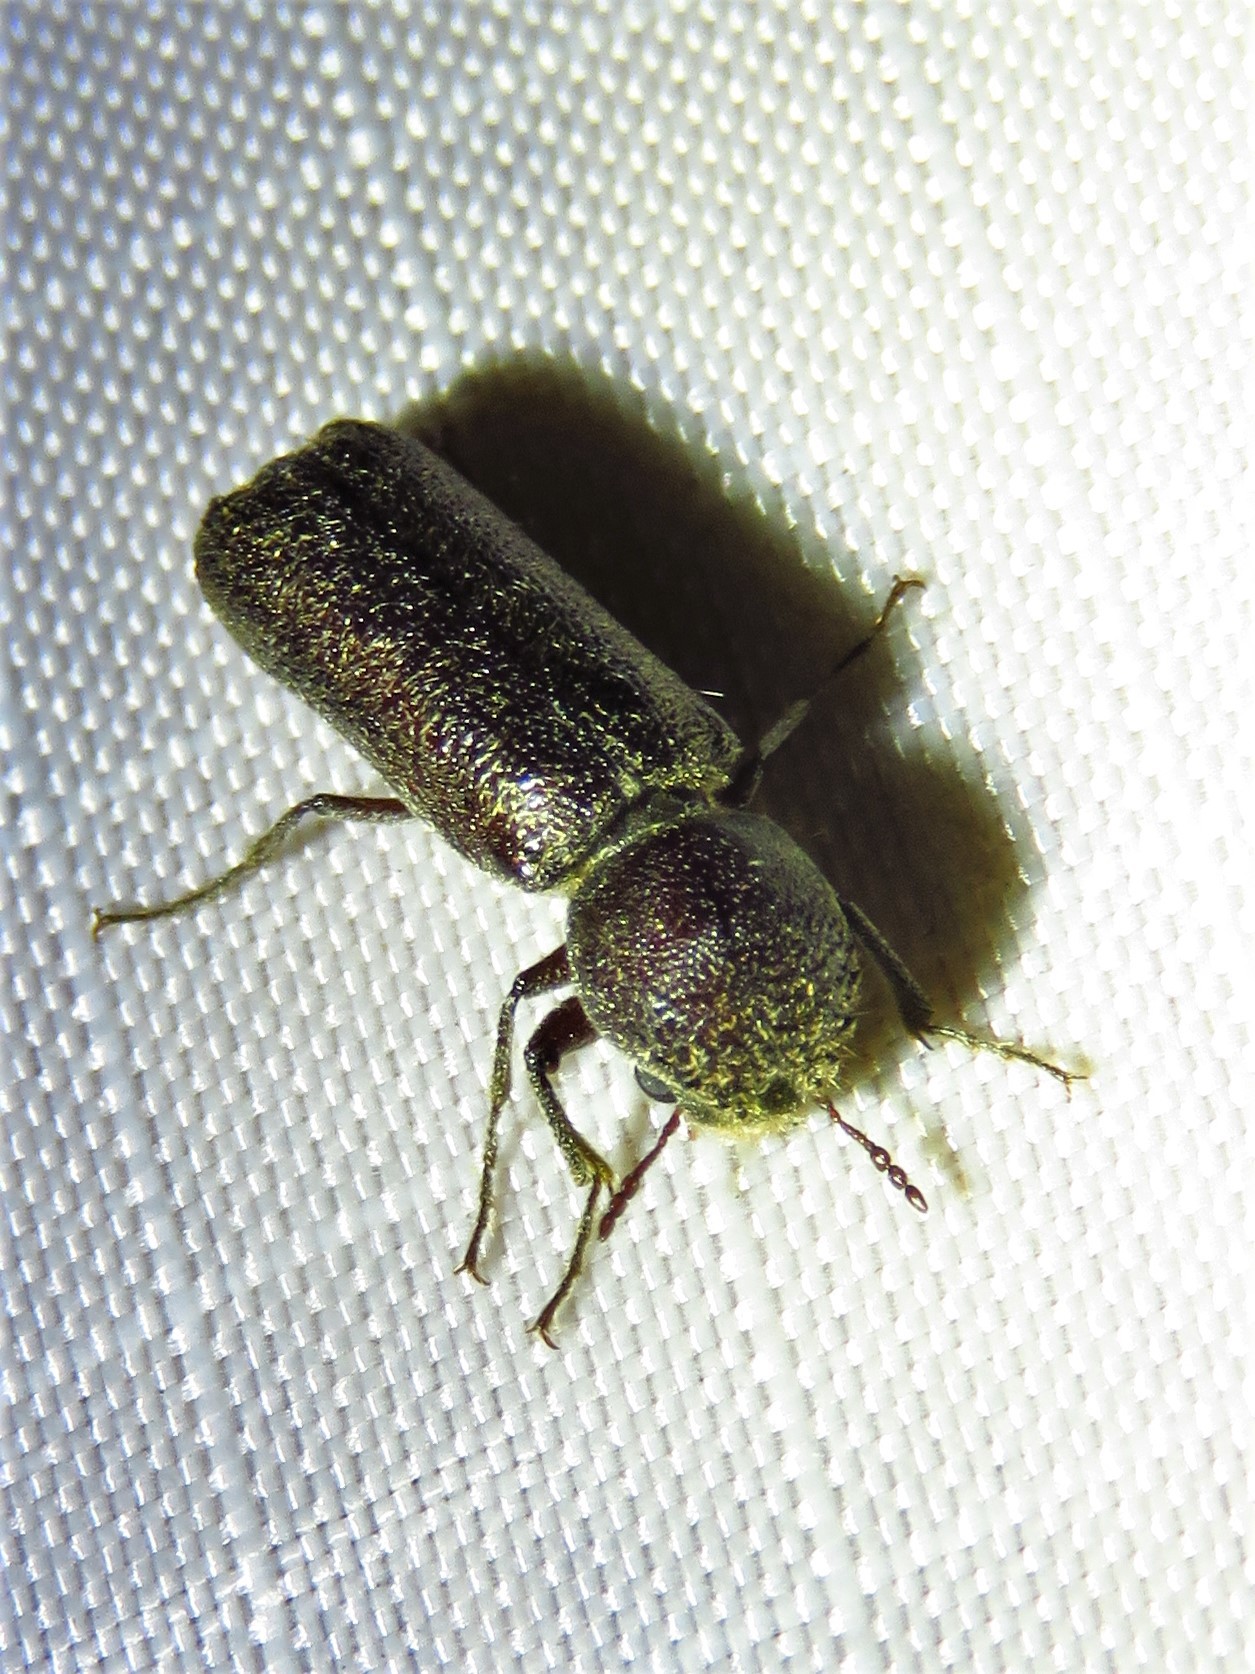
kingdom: Animalia
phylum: Arthropoda
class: Insecta
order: Coleoptera
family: Bostrichidae
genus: Amphicerus
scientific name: Amphicerus bicaudatus
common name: Apple twig borer
